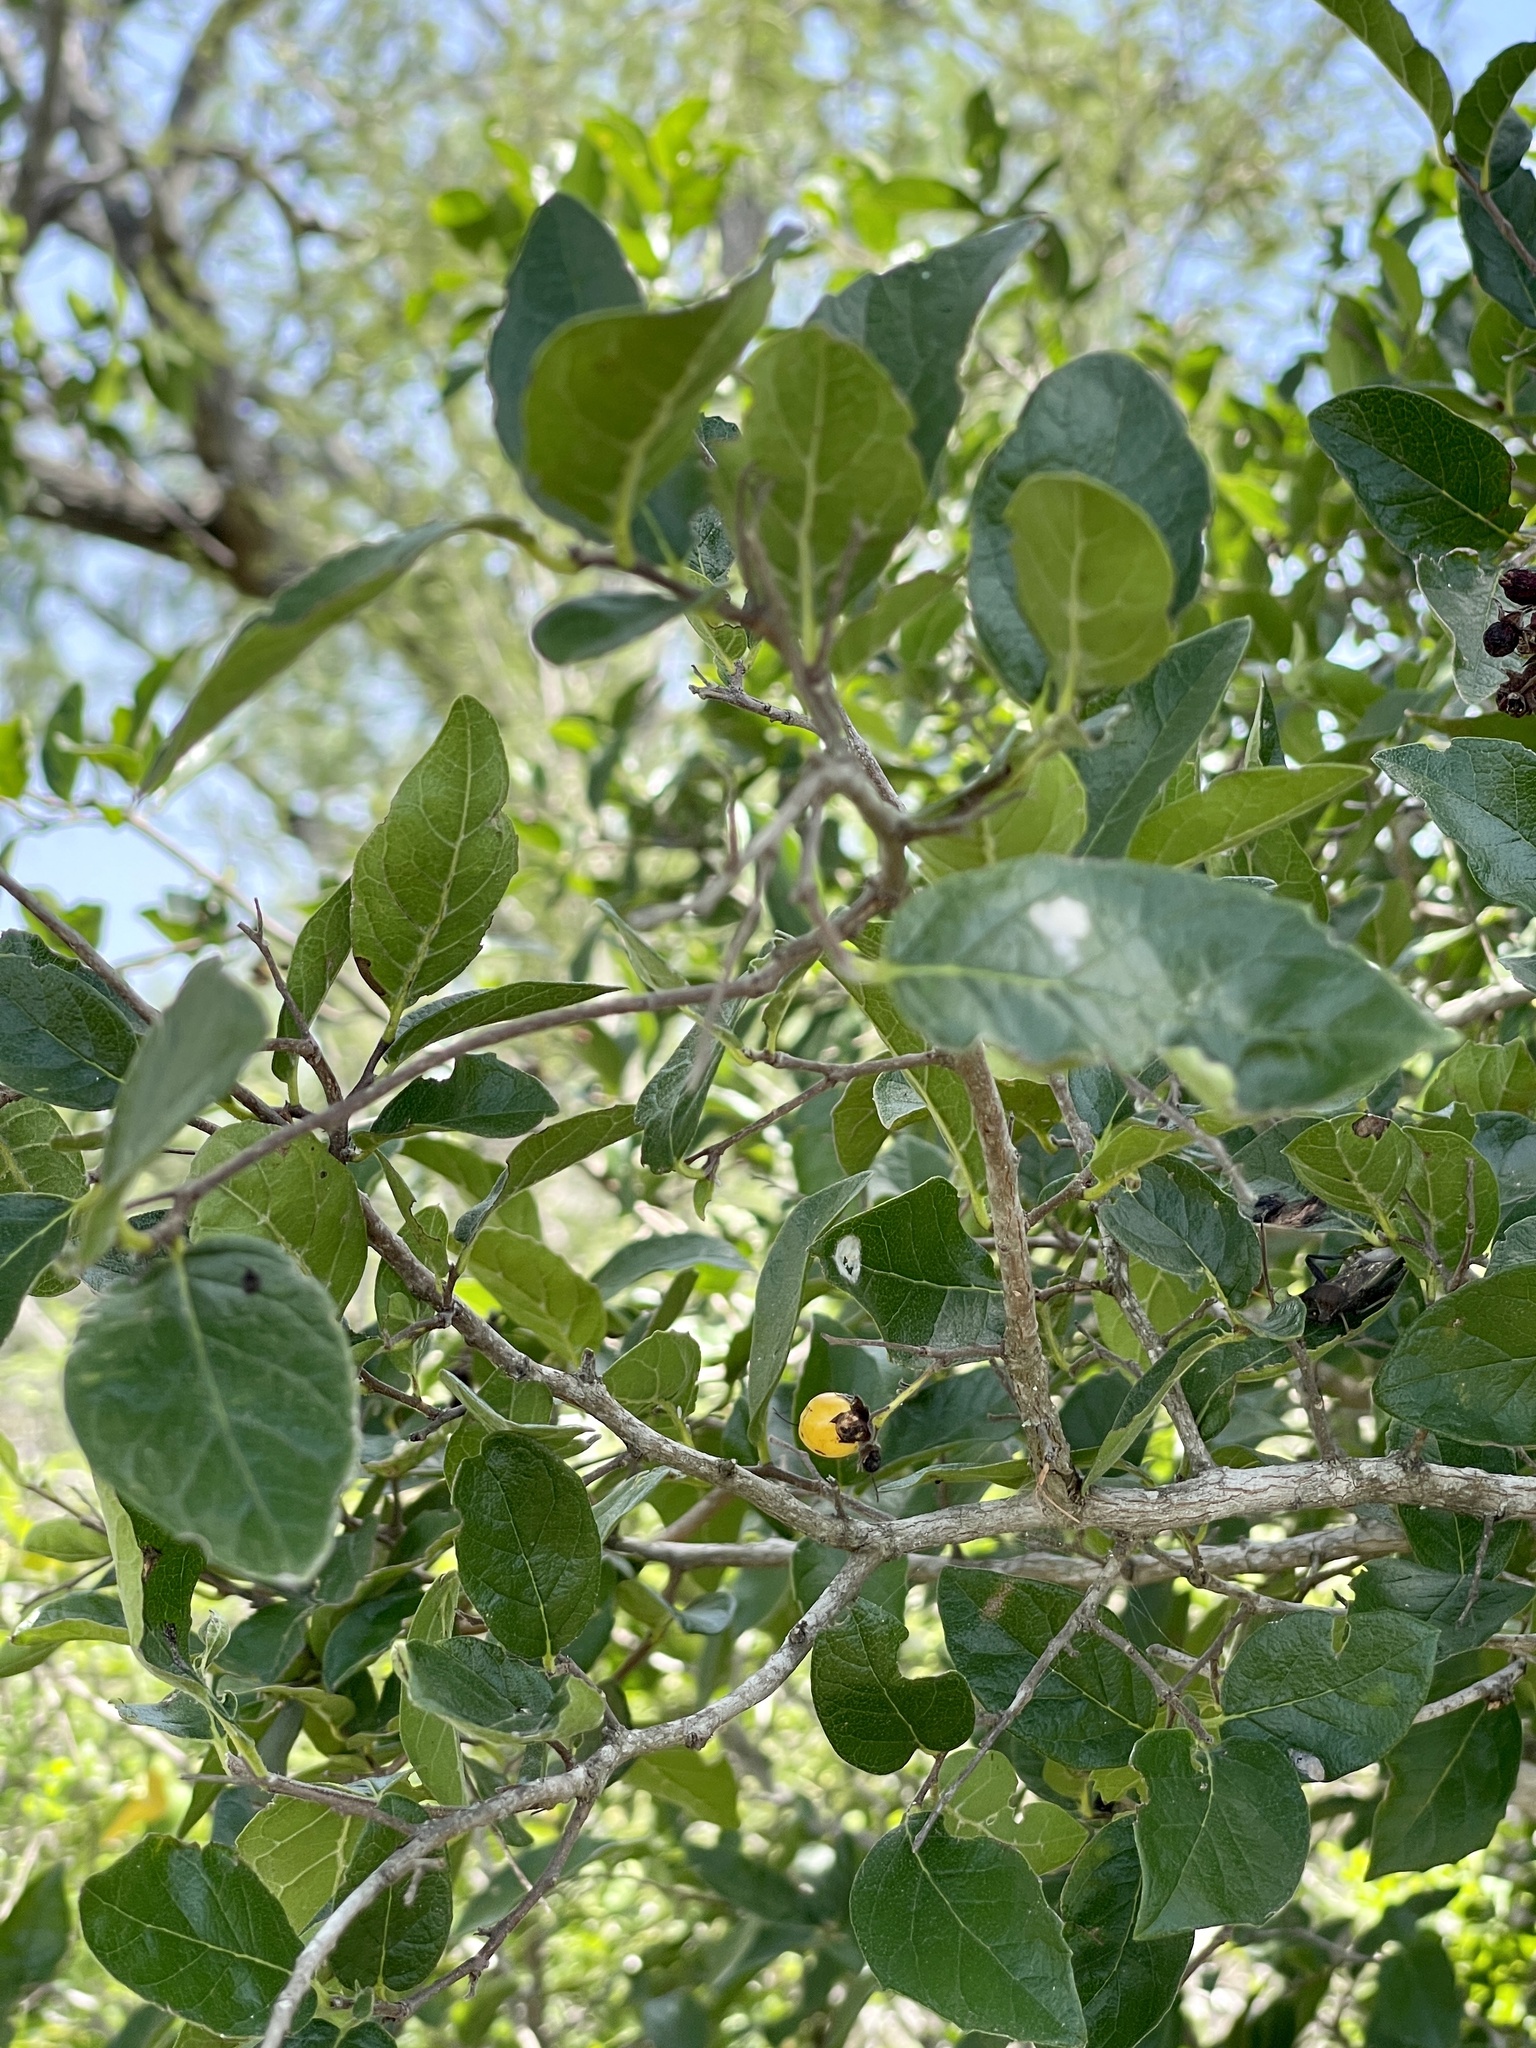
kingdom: Plantae
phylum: Tracheophyta
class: Magnoliopsida
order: Boraginales
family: Ehretiaceae
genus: Ehretia
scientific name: Ehretia anacua
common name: Sugarberry
